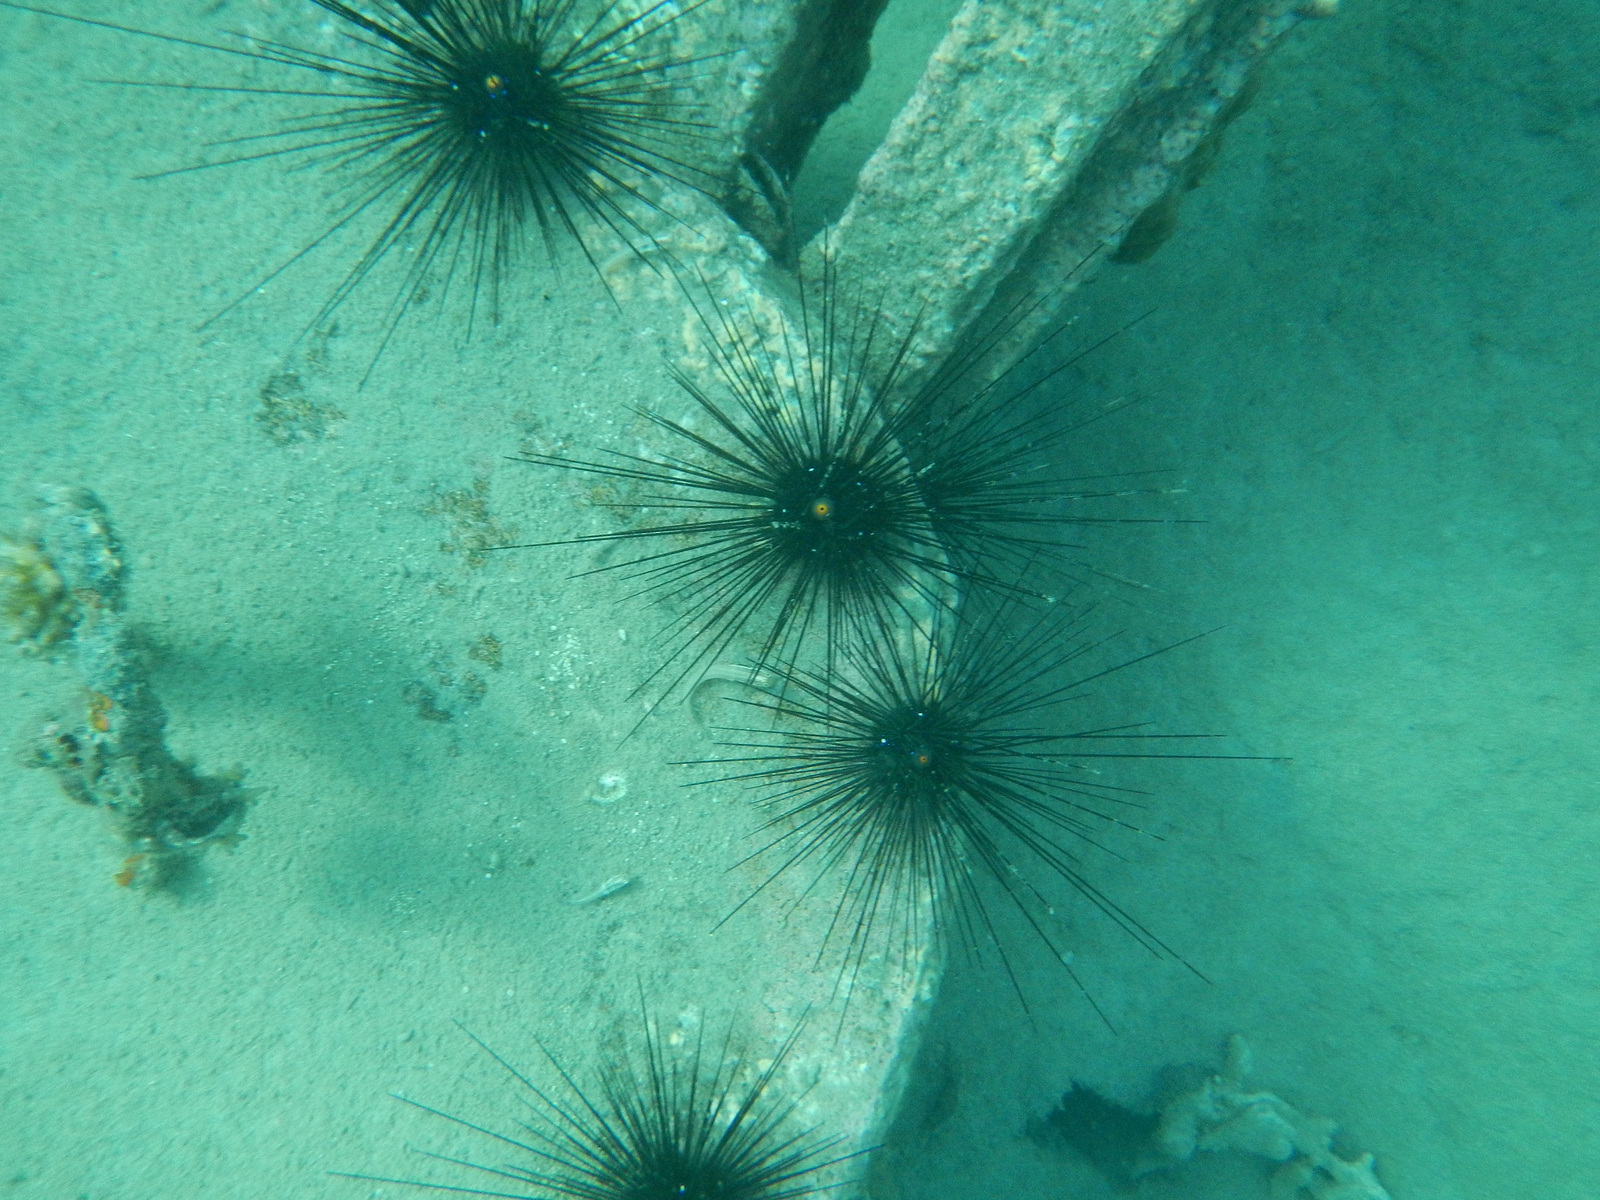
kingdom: Animalia
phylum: Echinodermata
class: Echinoidea
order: Diadematoida
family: Diadematidae
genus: Diadema
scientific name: Diadema setosum
